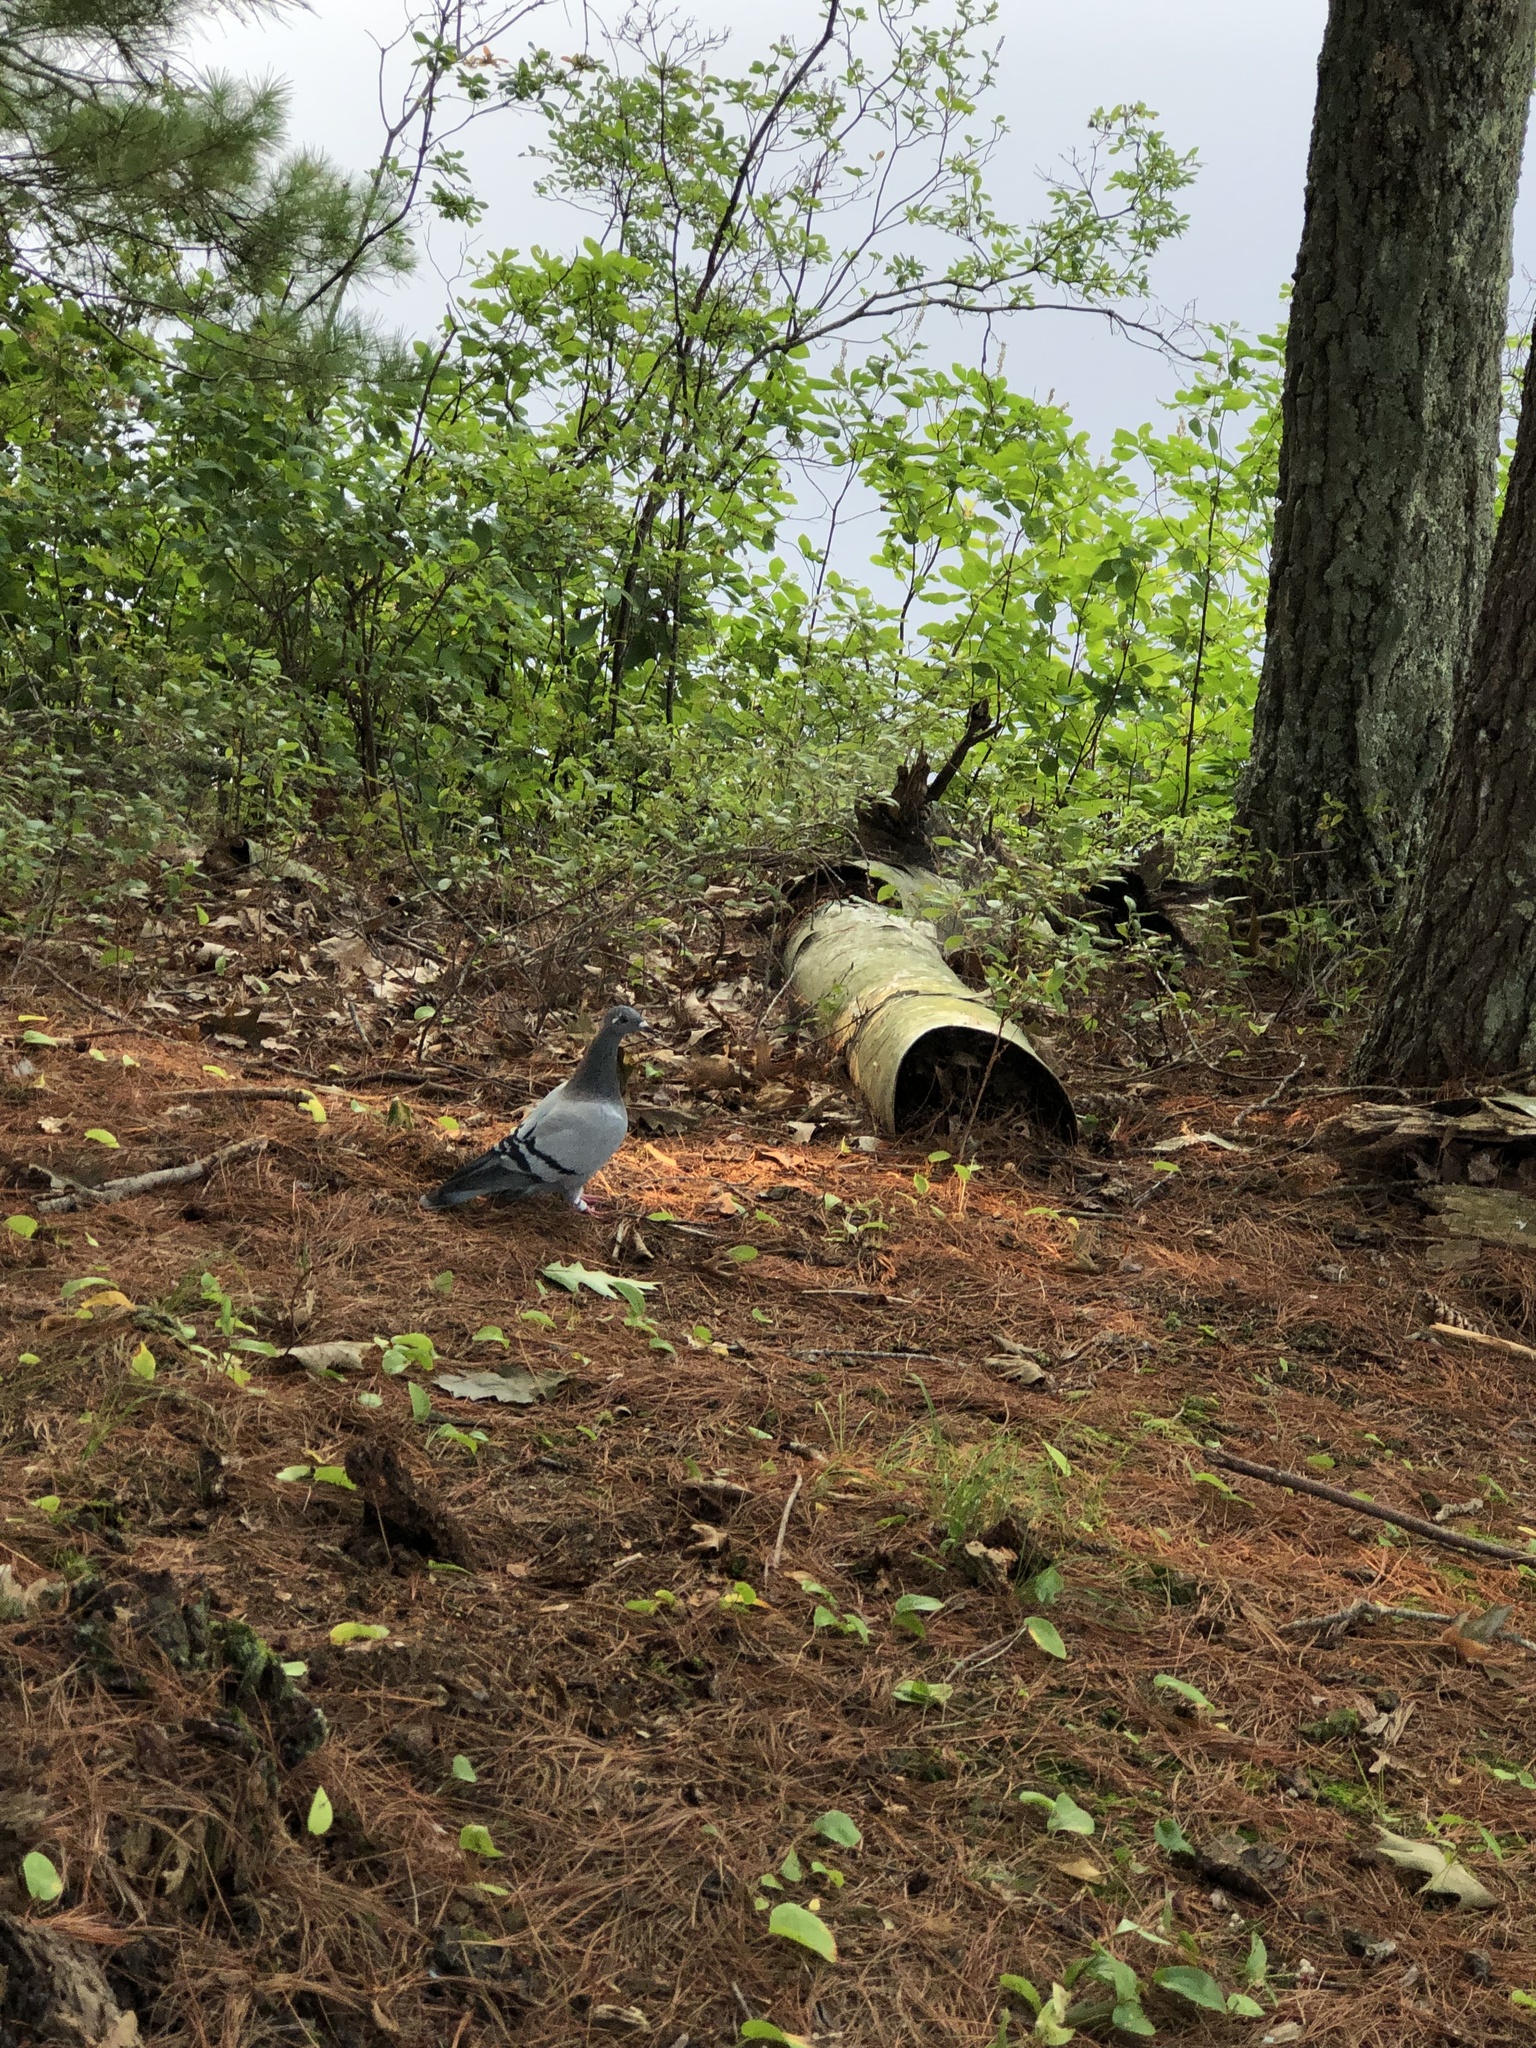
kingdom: Animalia
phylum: Chordata
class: Aves
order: Columbiformes
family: Columbidae
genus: Columba
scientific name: Columba livia
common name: Rock pigeon
